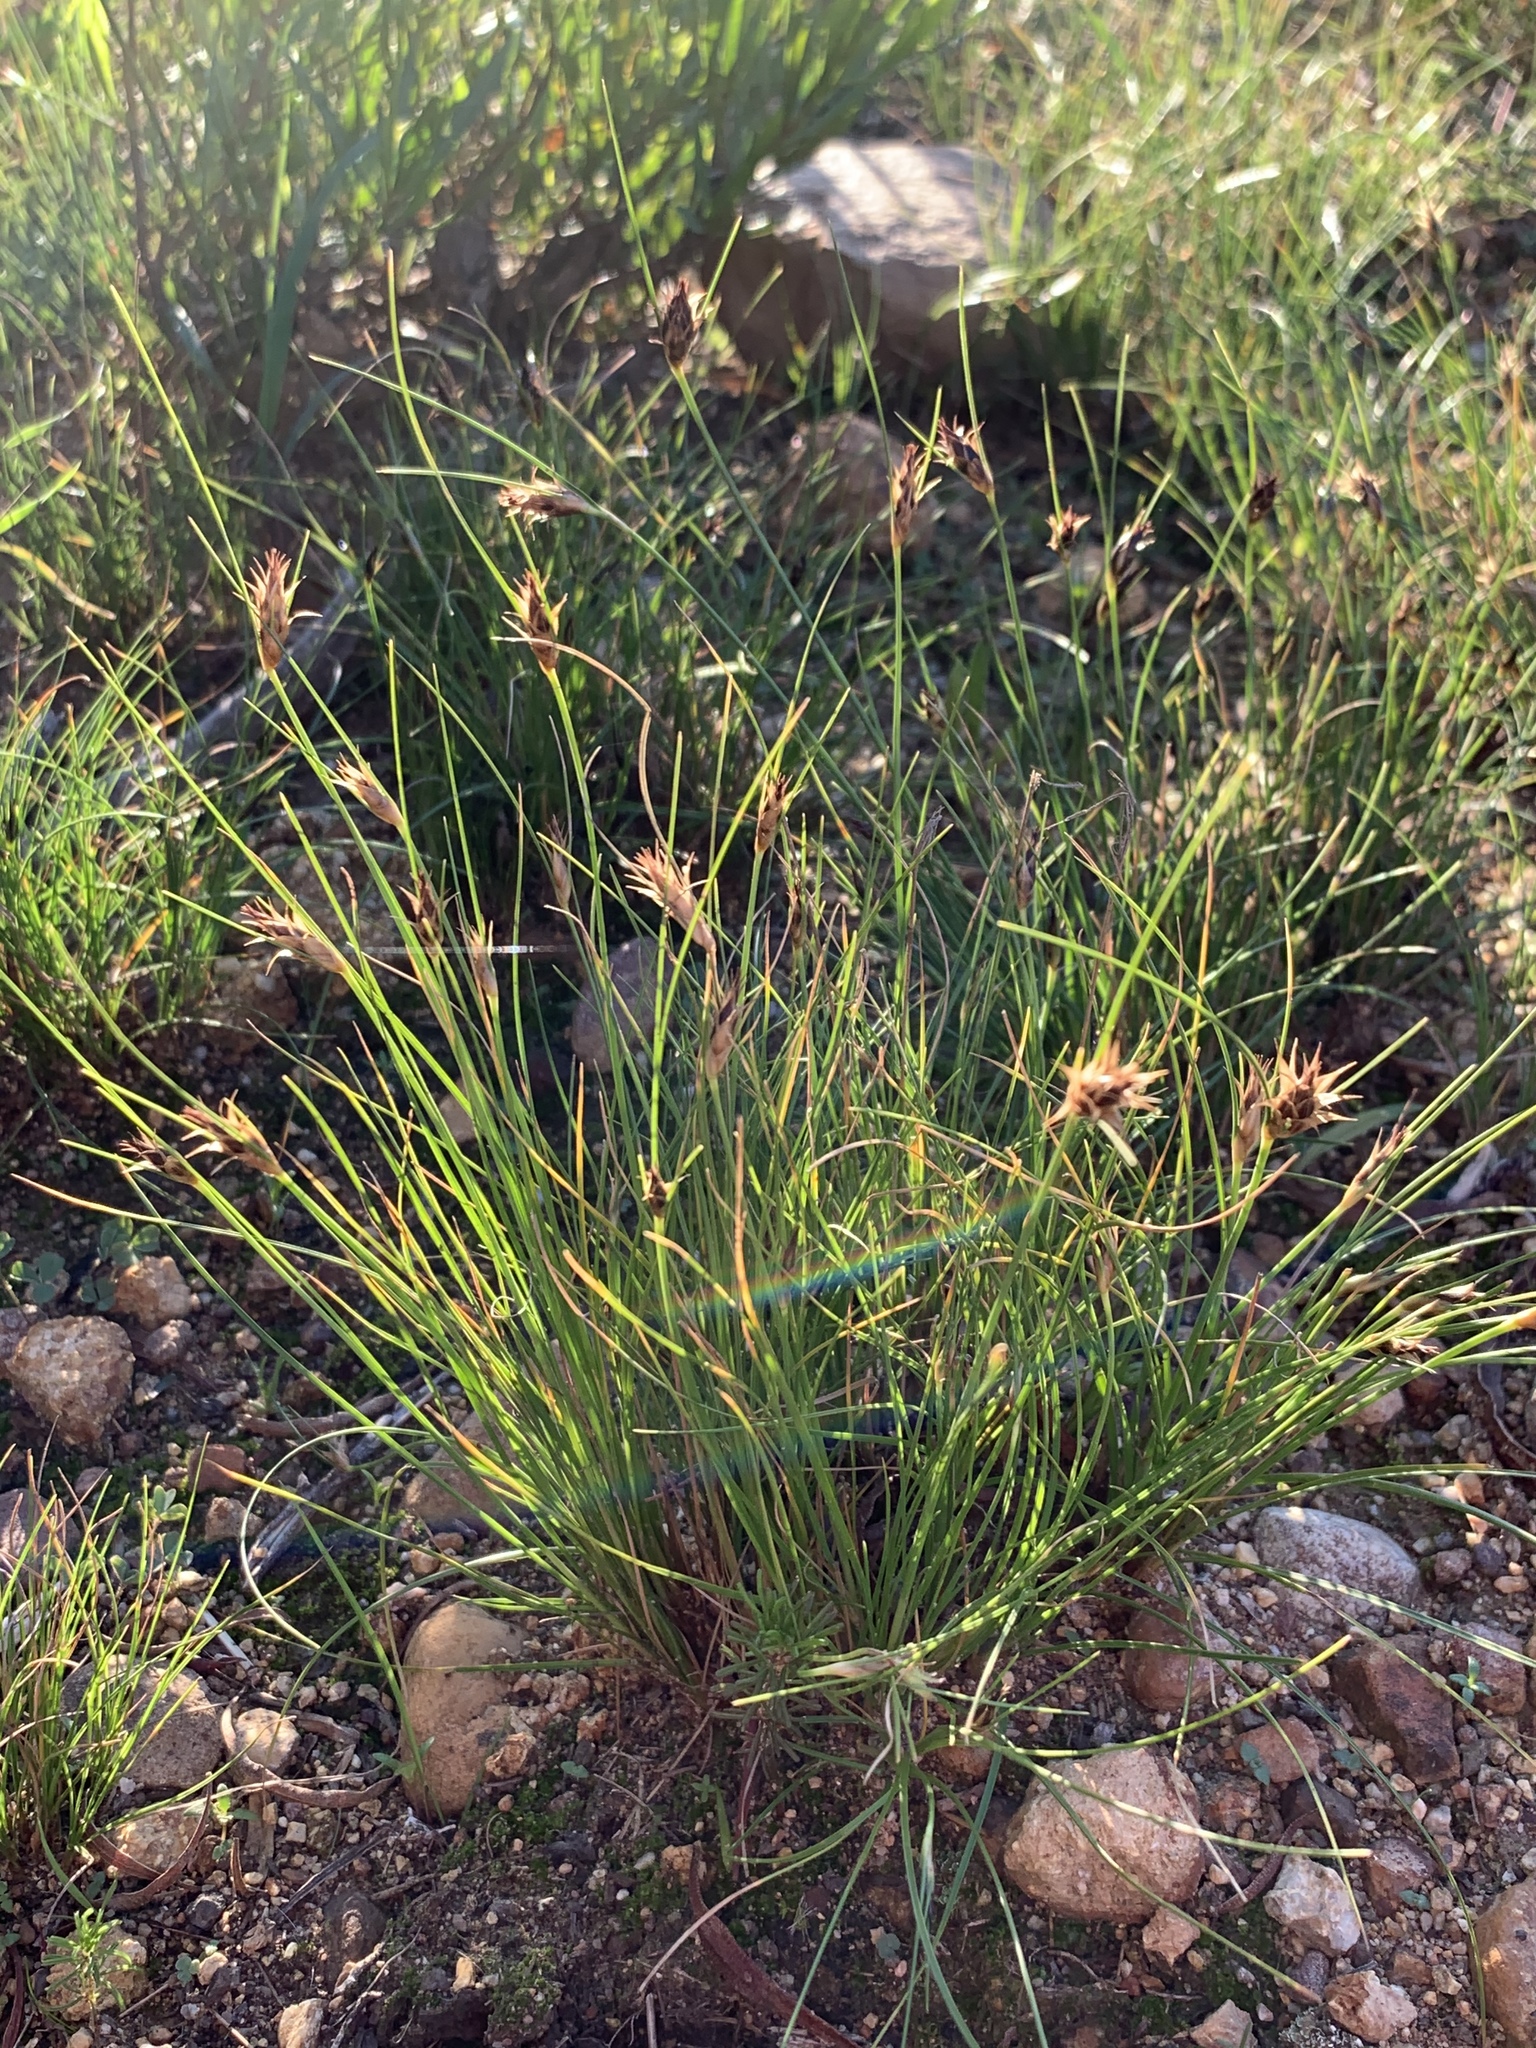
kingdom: Plantae
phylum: Tracheophyta
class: Liliopsida
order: Poales
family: Cyperaceae
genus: Ficinia
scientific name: Ficinia nigrescens
